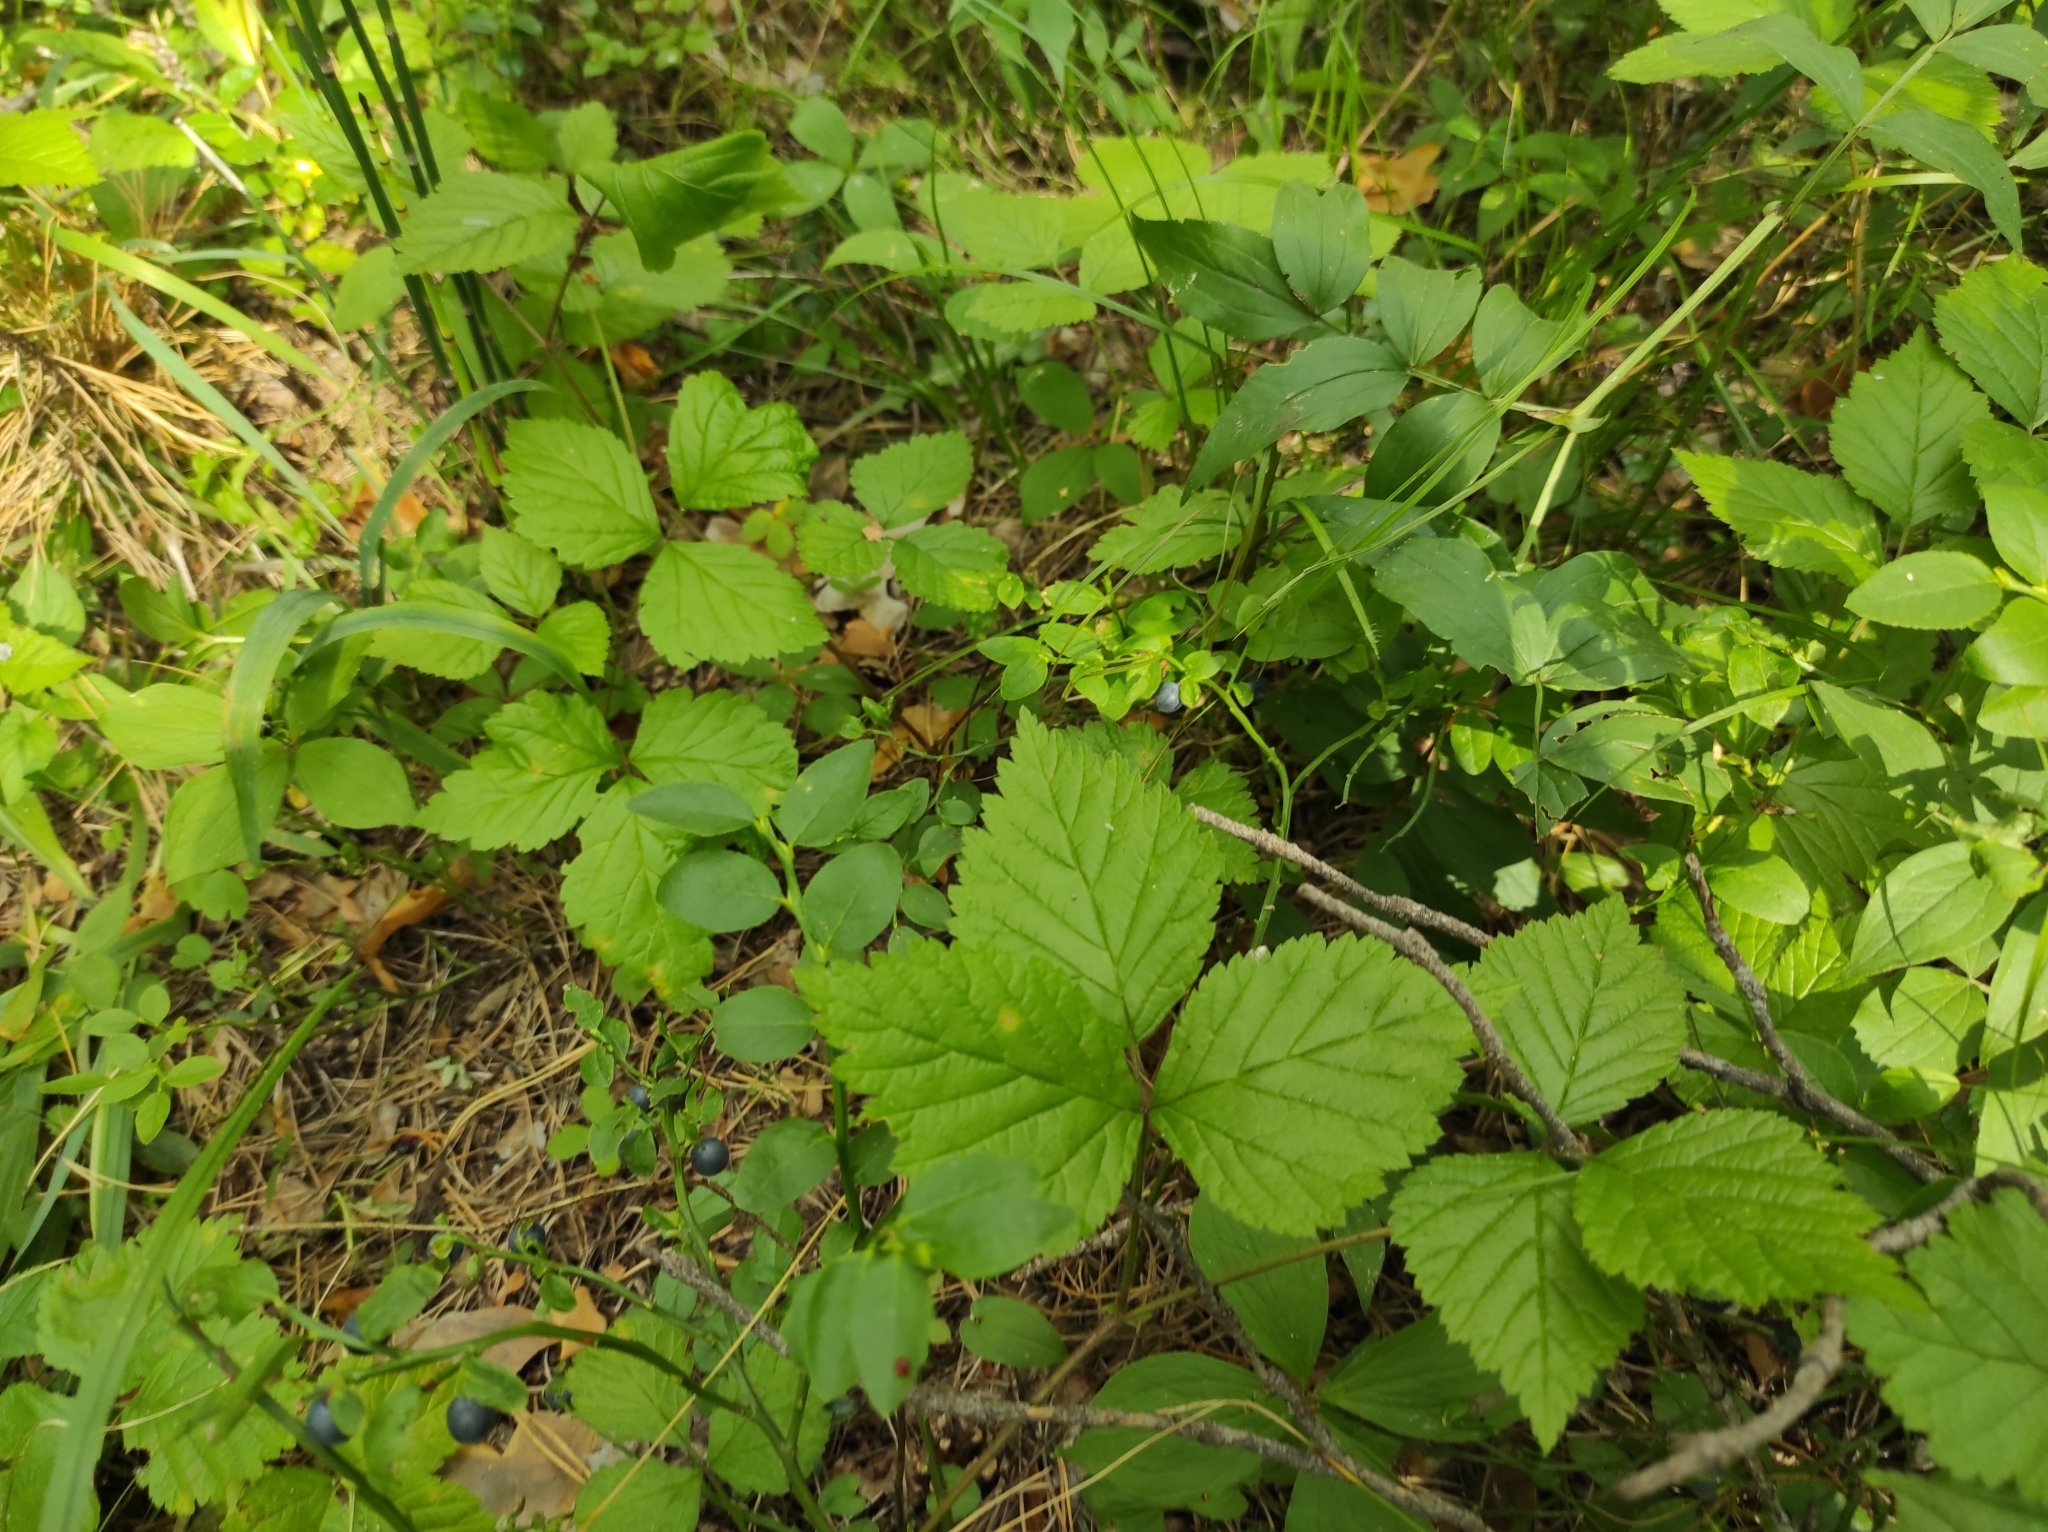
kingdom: Plantae
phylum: Tracheophyta
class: Magnoliopsida
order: Rosales
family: Rosaceae
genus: Rubus
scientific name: Rubus saxatilis
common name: Stone bramble
